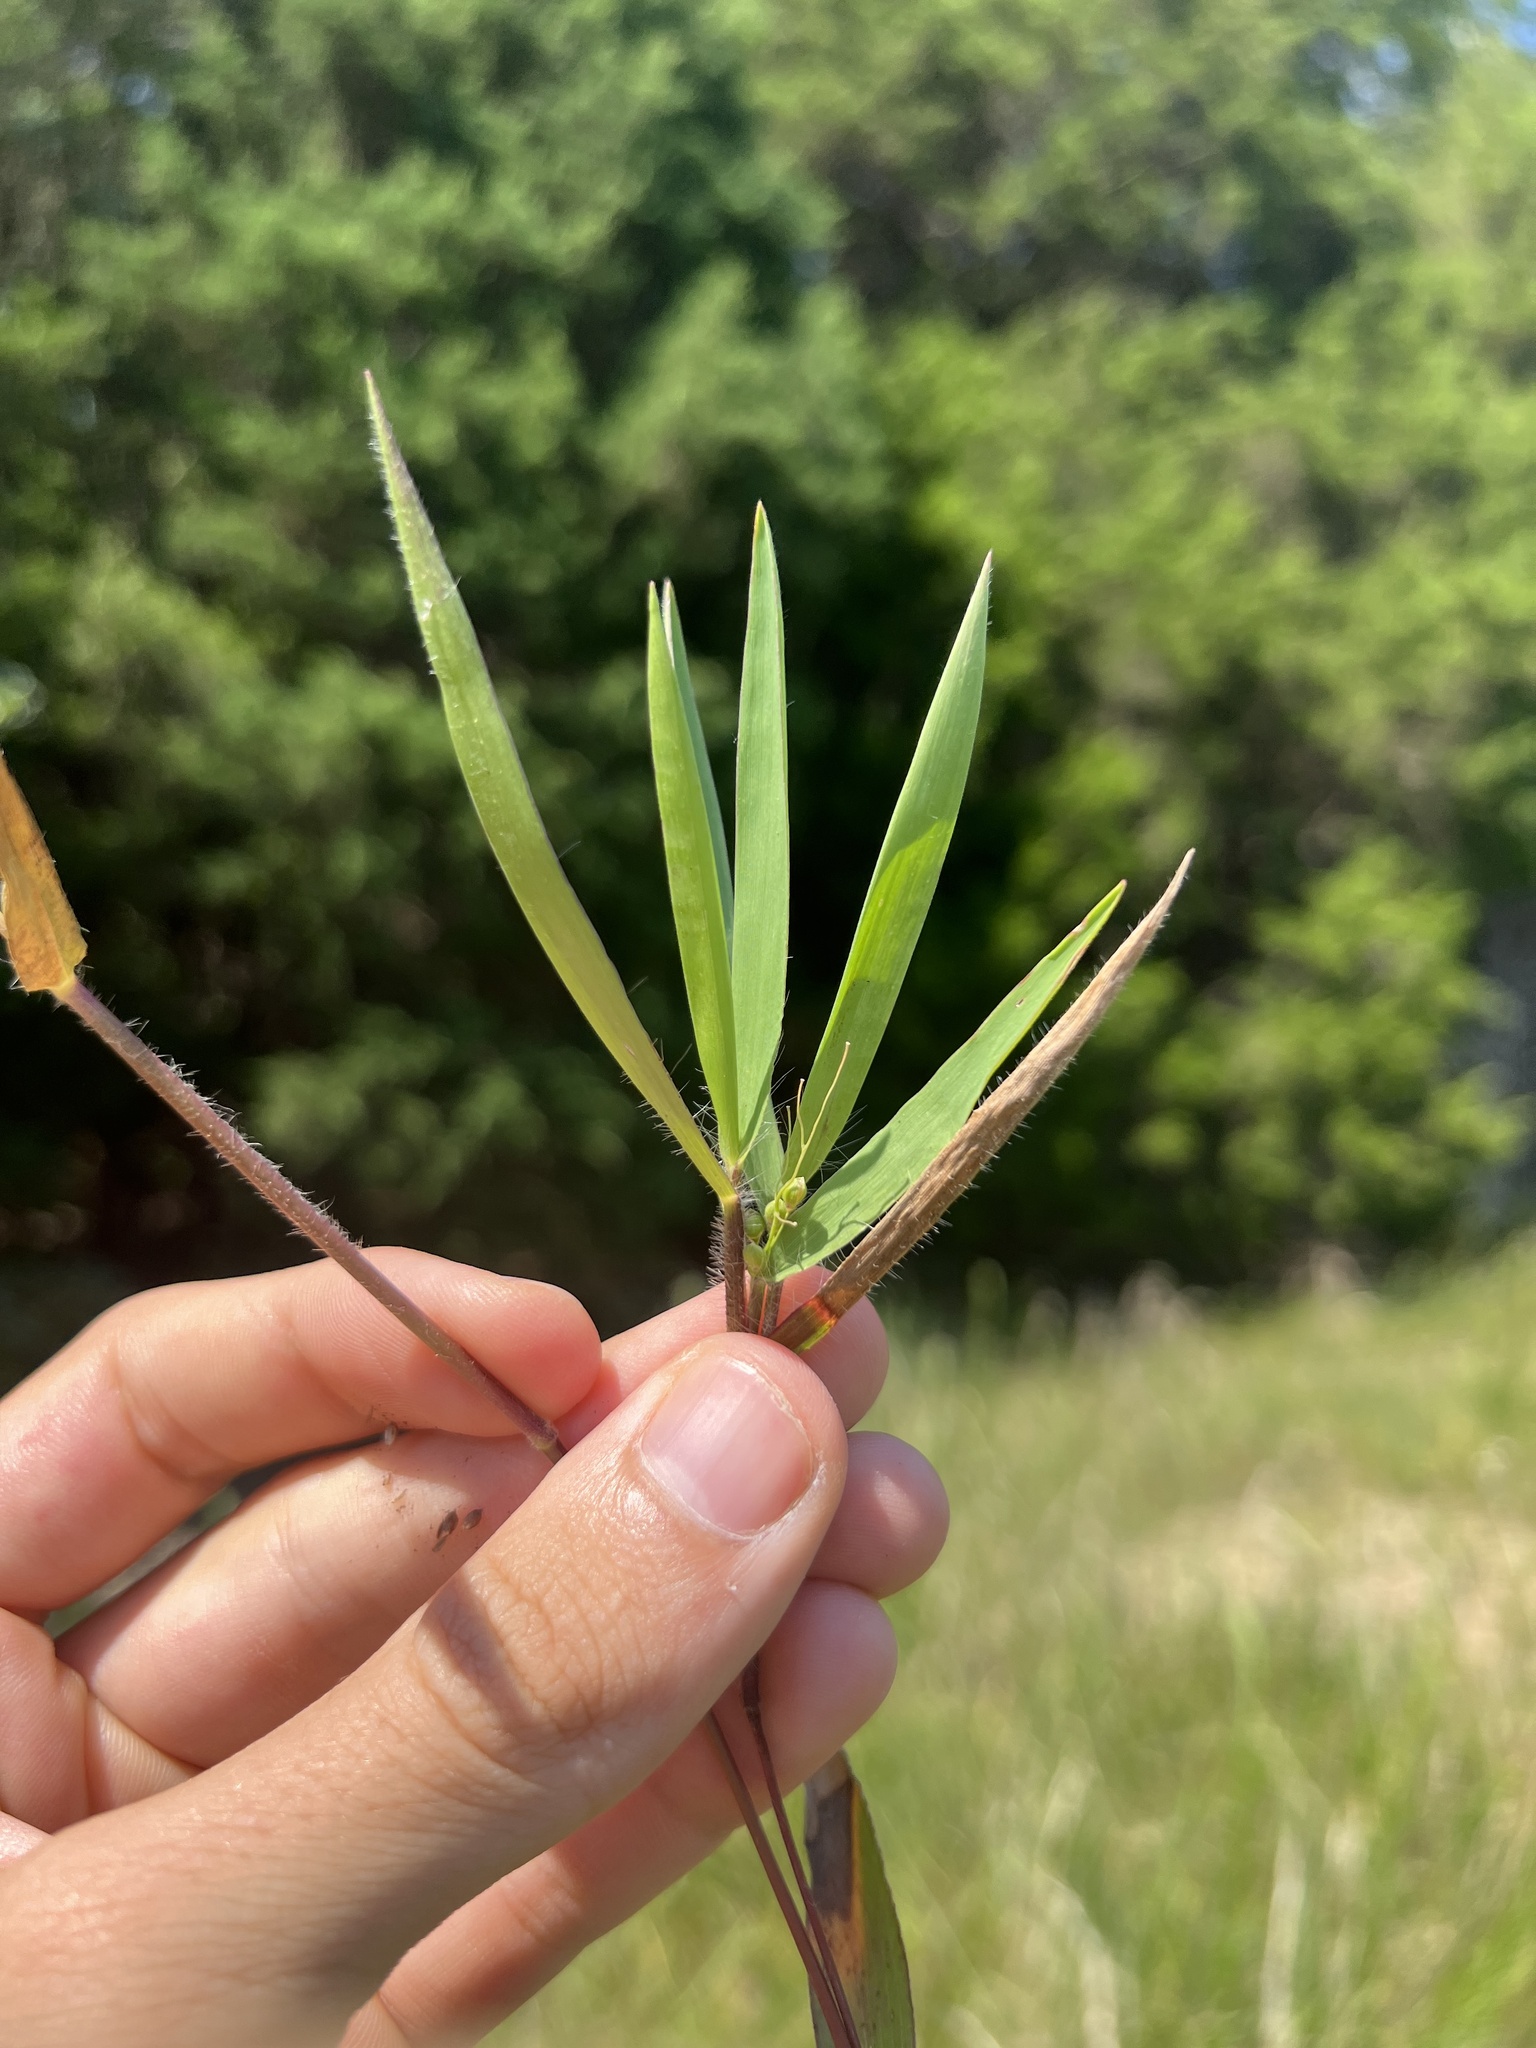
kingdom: Plantae
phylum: Tracheophyta
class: Liliopsida
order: Poales
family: Poaceae
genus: Dichanthelium
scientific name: Dichanthelium scribnerianum
